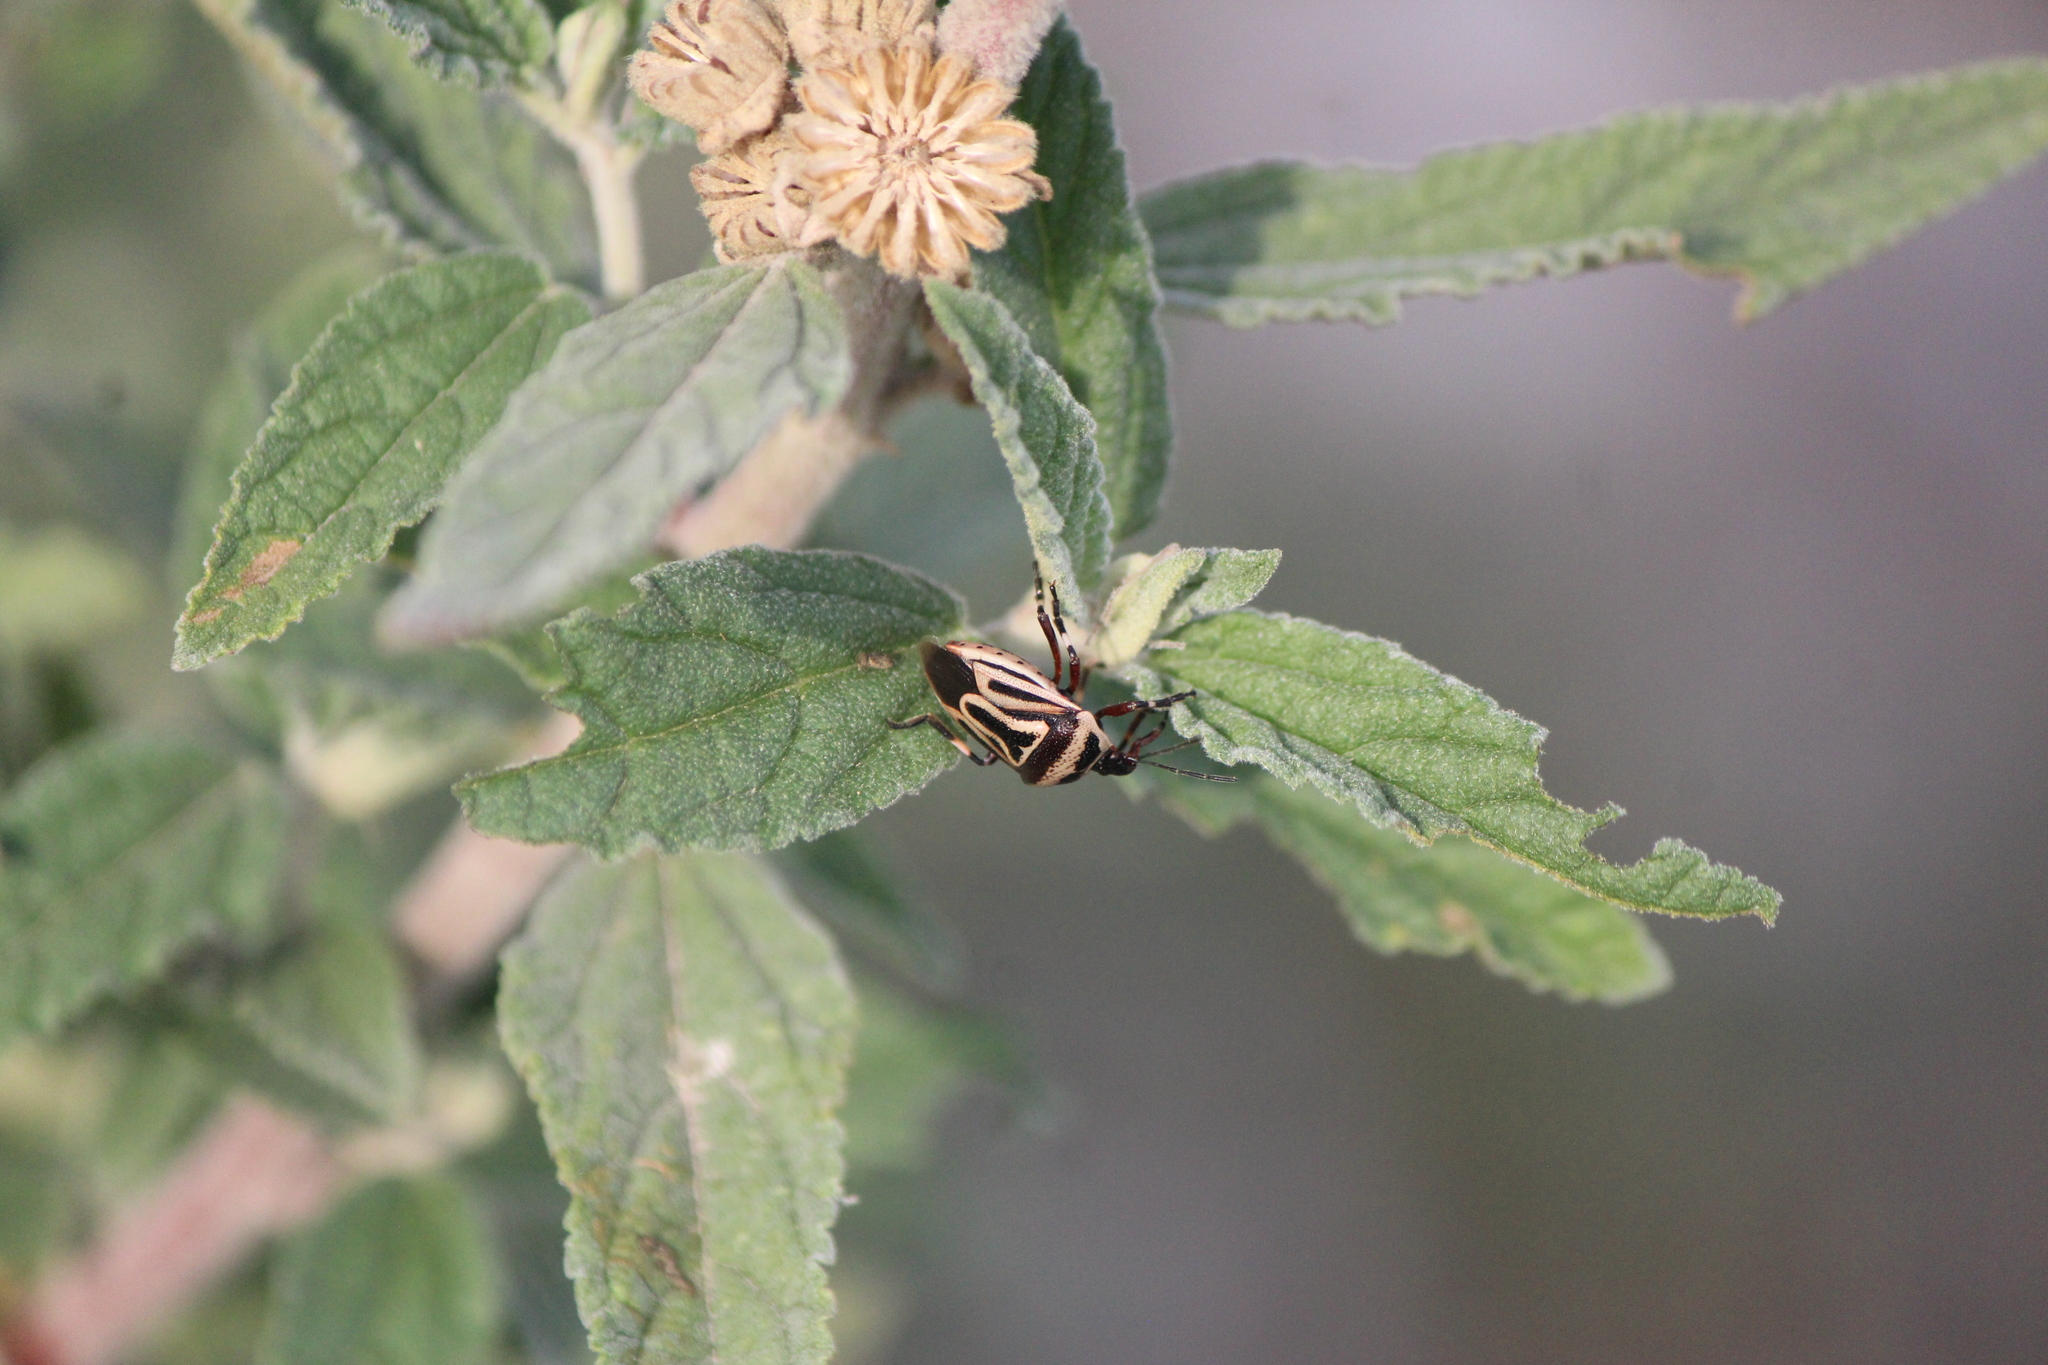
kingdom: Animalia
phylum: Arthropoda
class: Insecta
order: Hemiptera
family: Pentatomidae
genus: Perillus
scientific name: Perillus bioculatus
